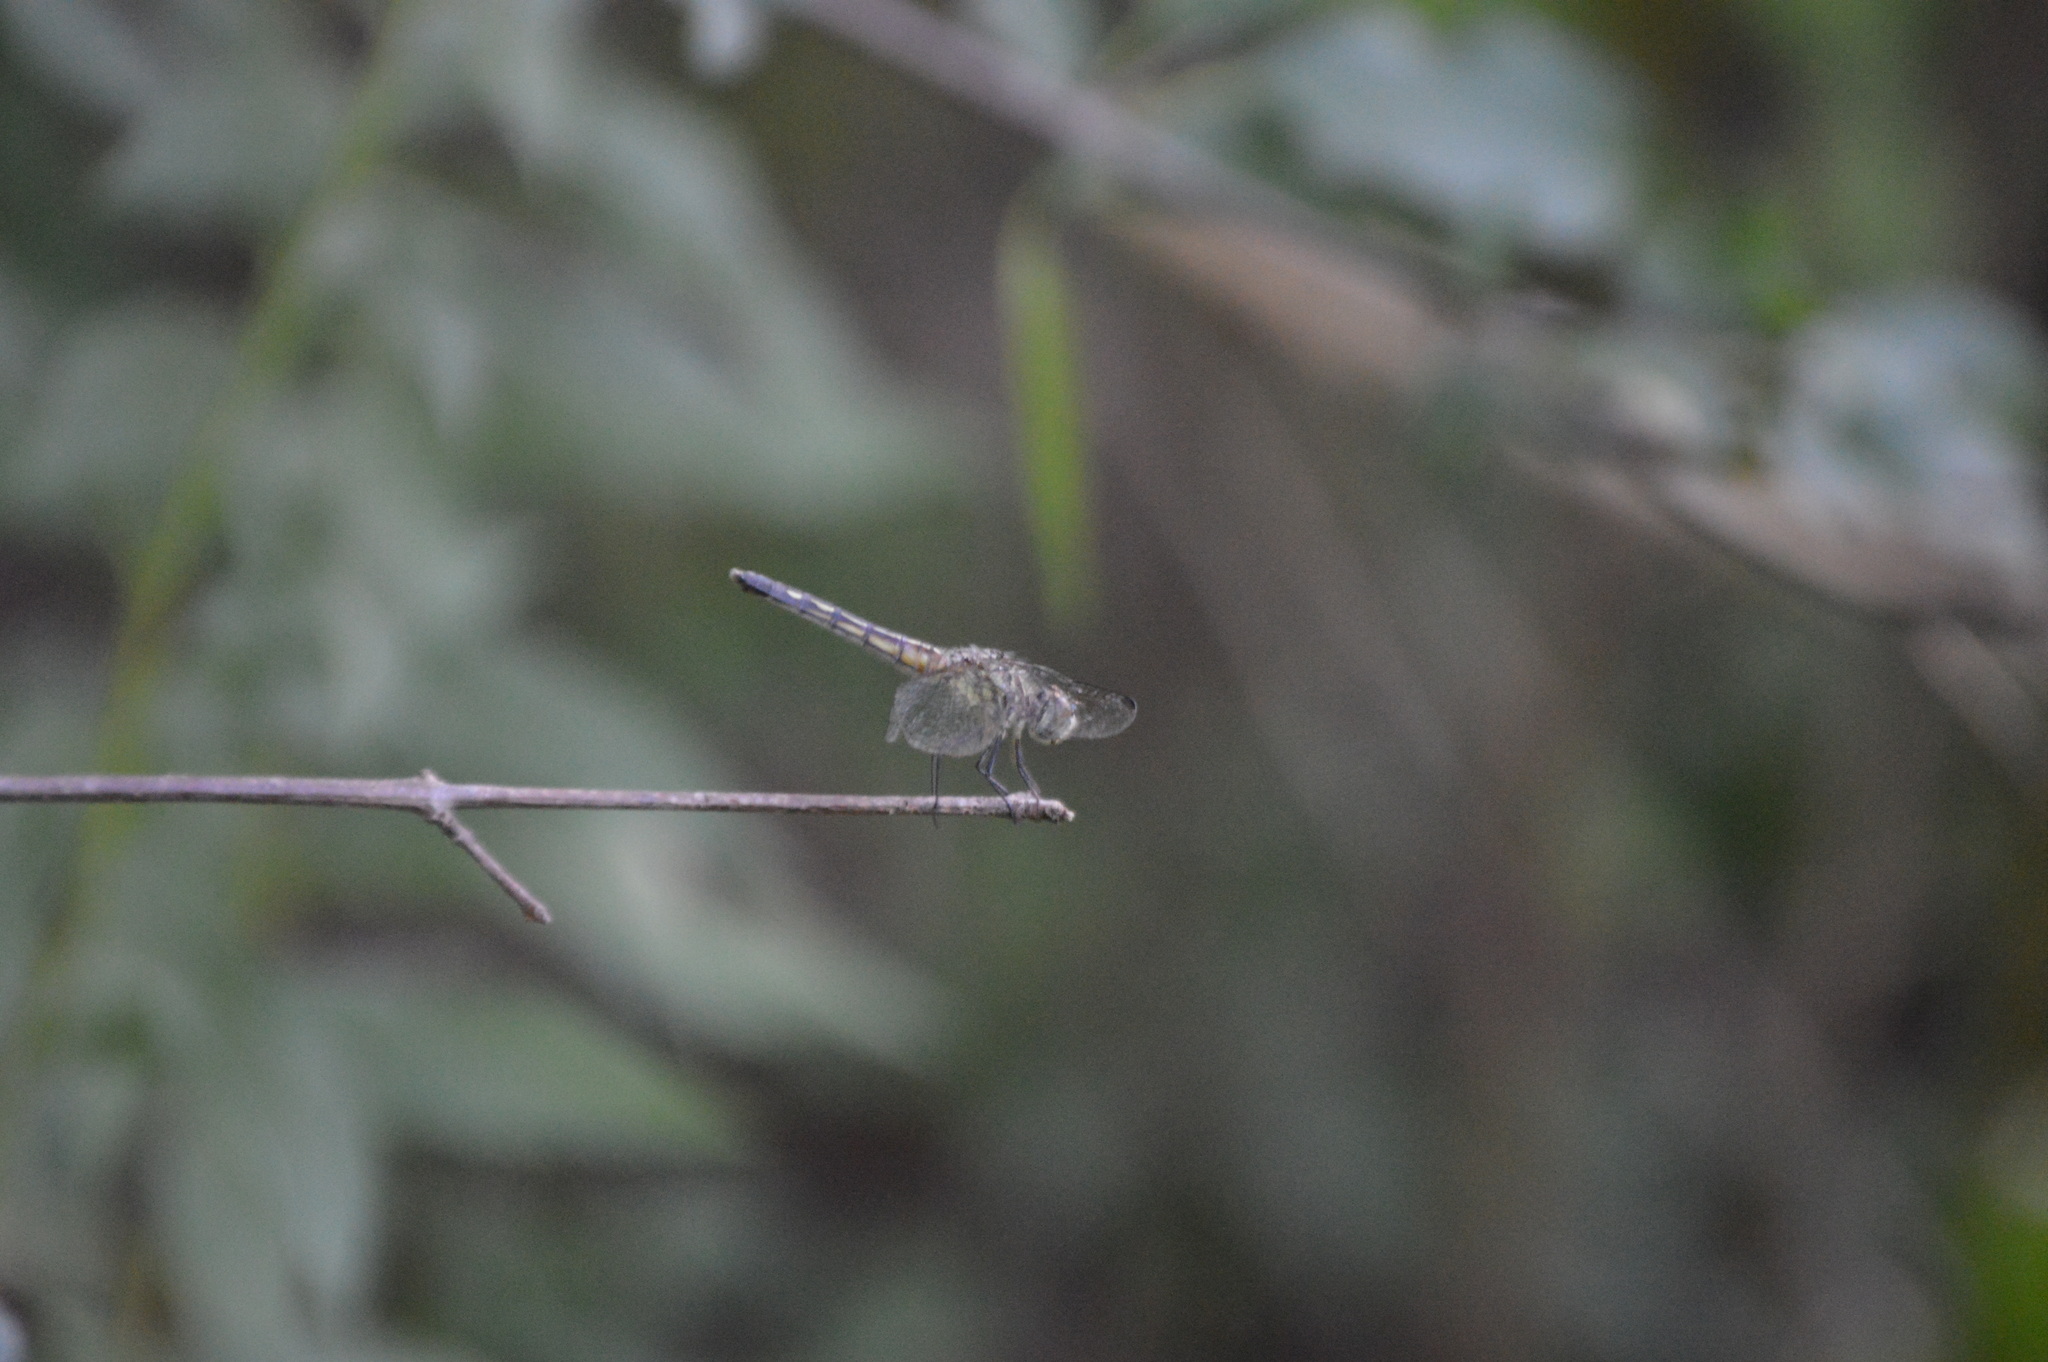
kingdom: Animalia
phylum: Arthropoda
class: Insecta
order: Odonata
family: Libellulidae
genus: Pachydiplax
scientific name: Pachydiplax longipennis
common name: Blue dasher
